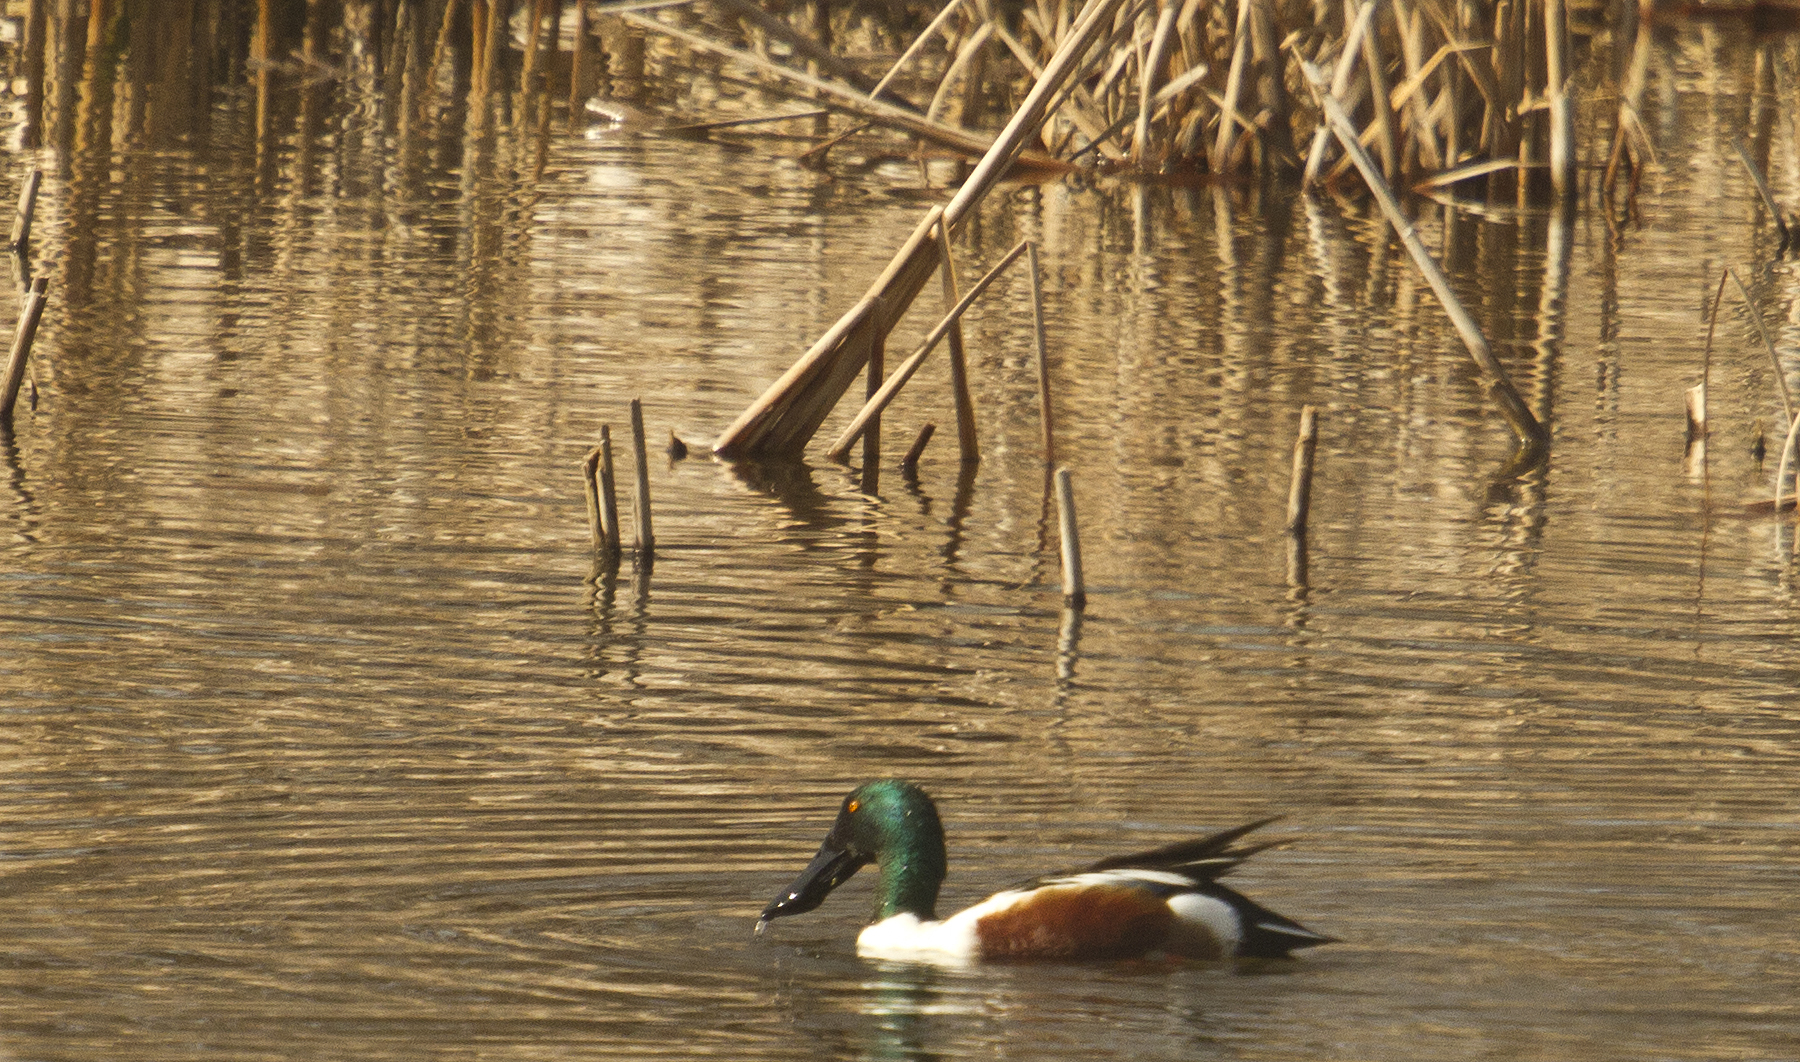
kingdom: Animalia
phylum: Chordata
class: Aves
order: Anseriformes
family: Anatidae
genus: Spatula
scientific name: Spatula clypeata
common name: Northern shoveler
